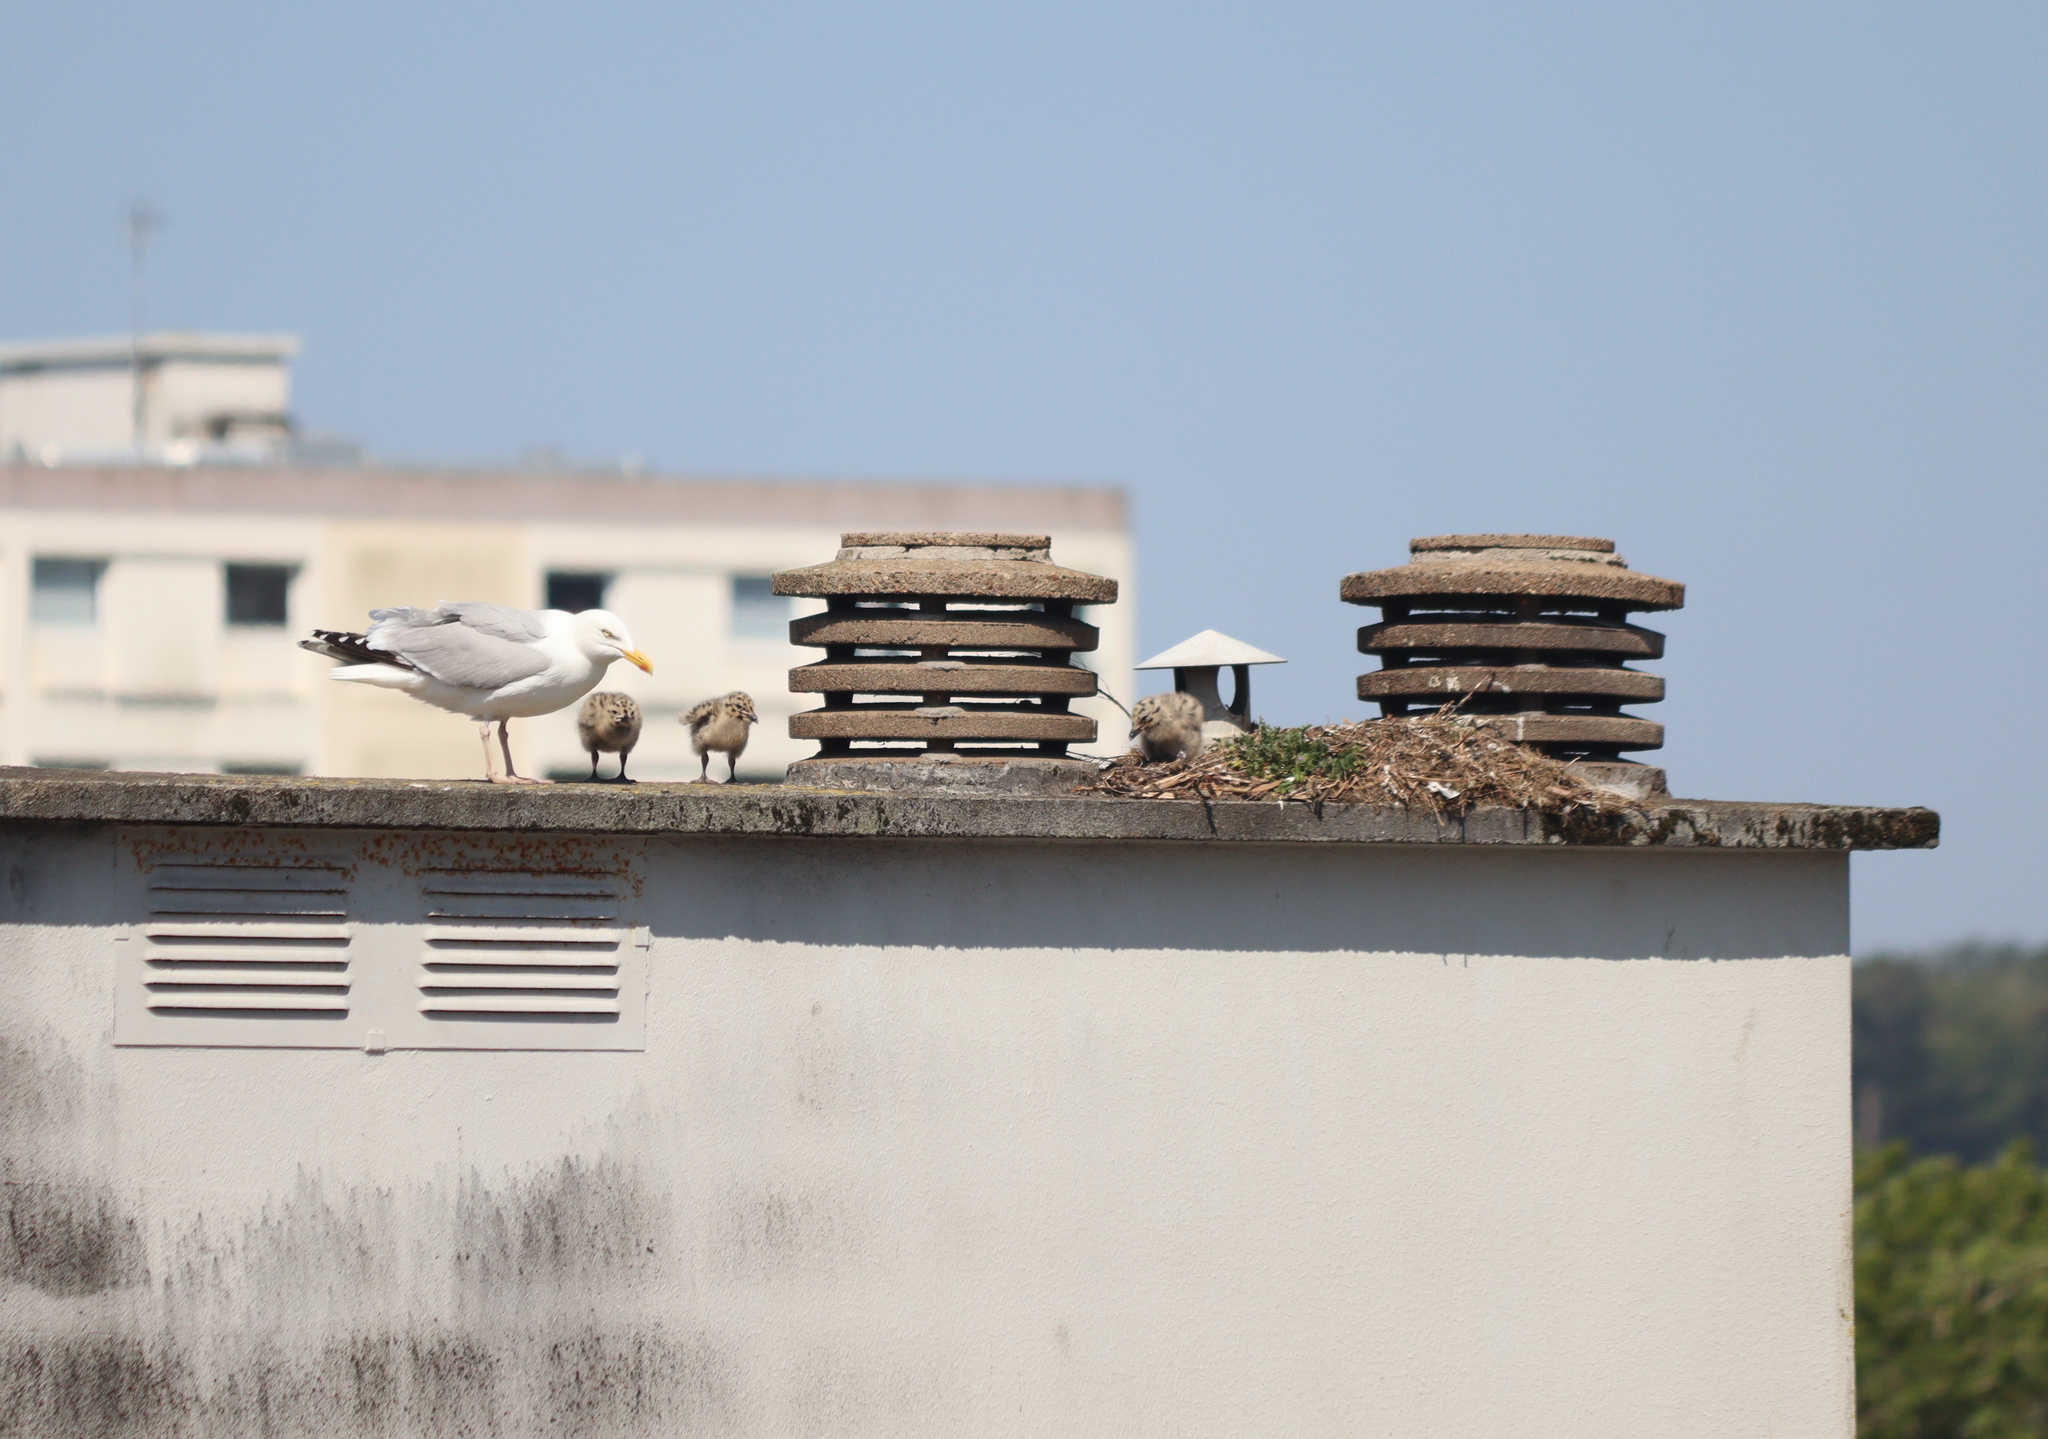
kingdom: Animalia
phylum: Chordata
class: Aves
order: Charadriiformes
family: Laridae
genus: Larus
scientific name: Larus argentatus
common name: Herring gull
